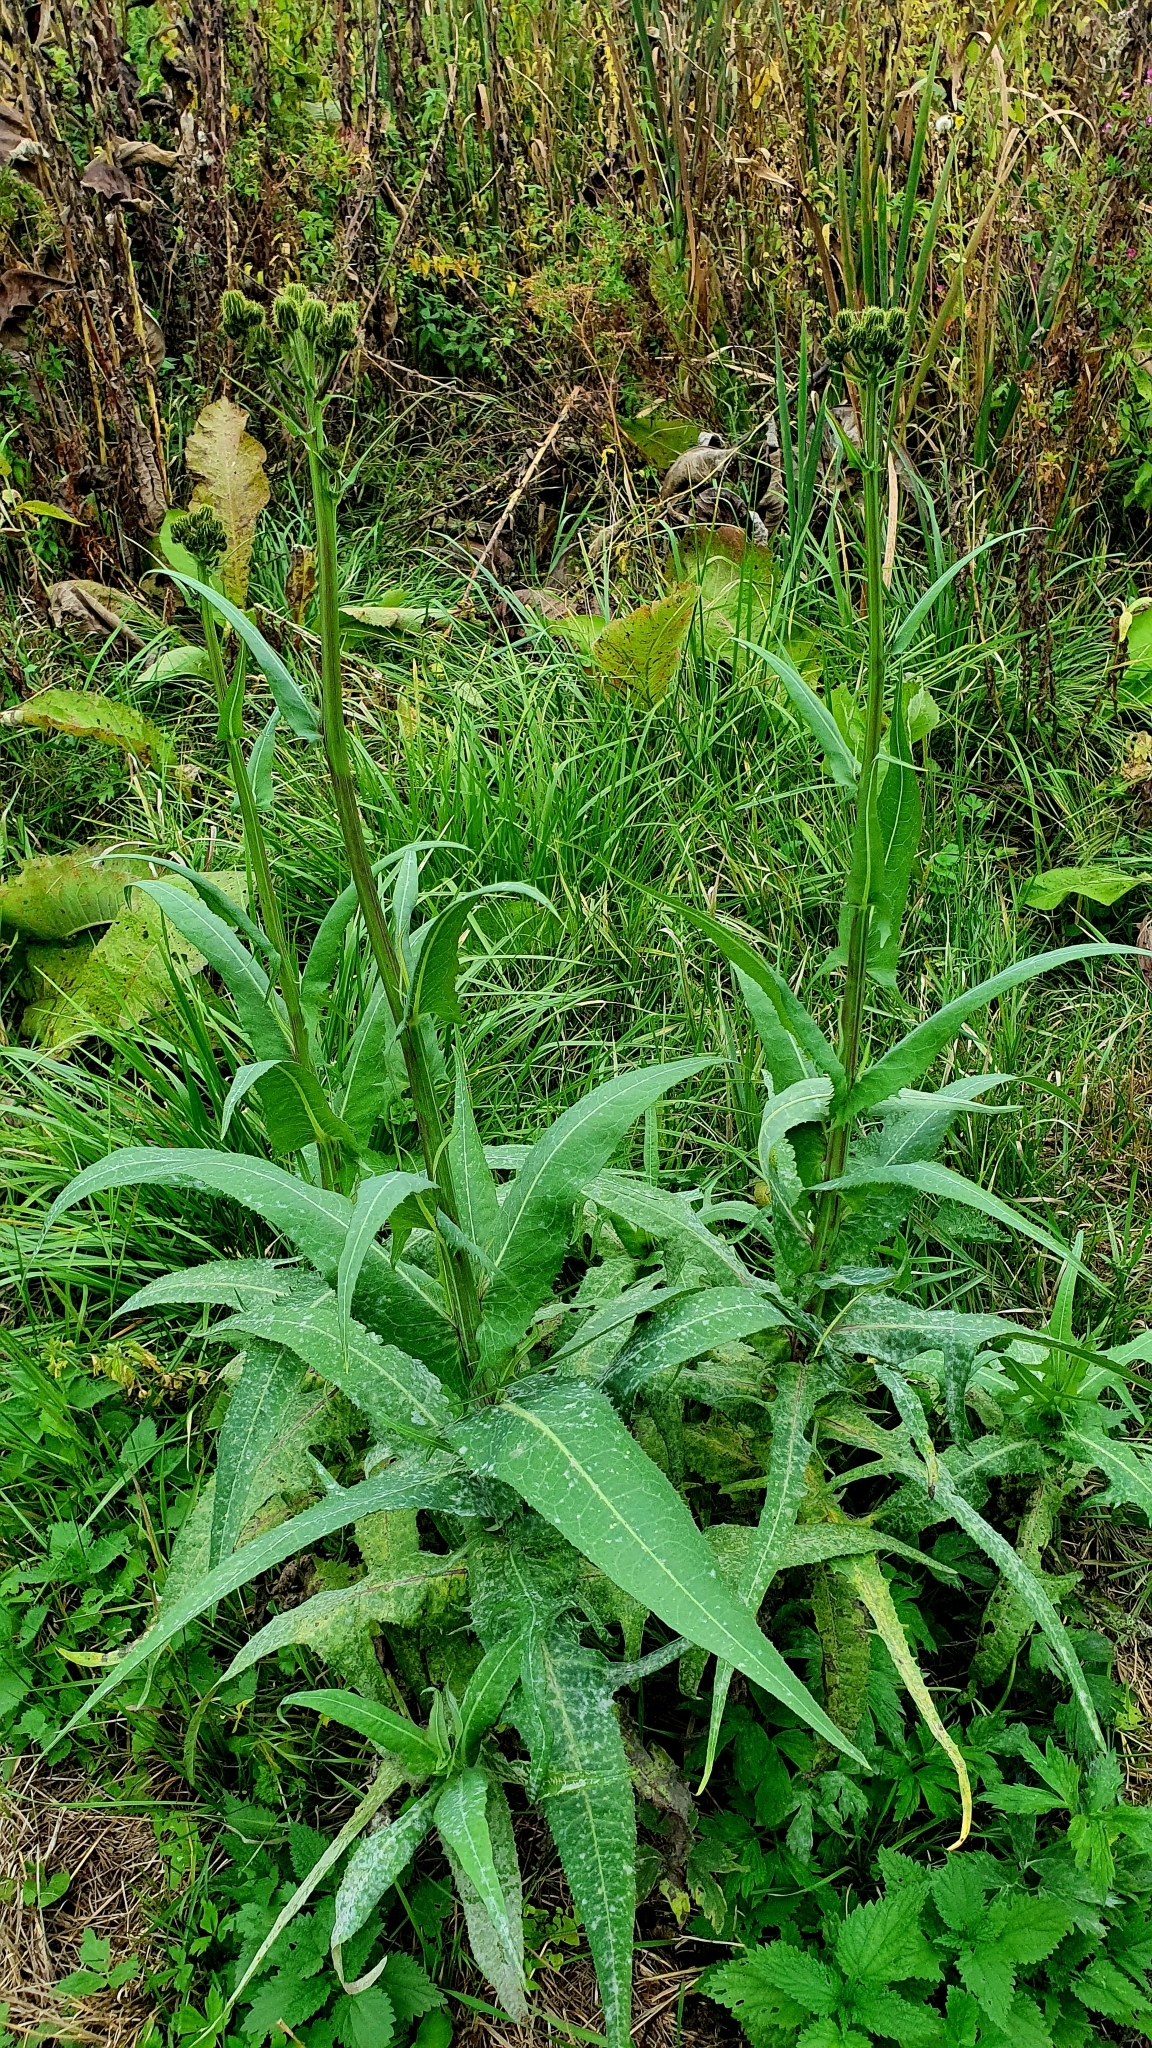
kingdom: Plantae
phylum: Tracheophyta
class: Magnoliopsida
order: Asterales
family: Asteraceae
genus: Sonchus
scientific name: Sonchus palustris
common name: Marsh sow-thistle
